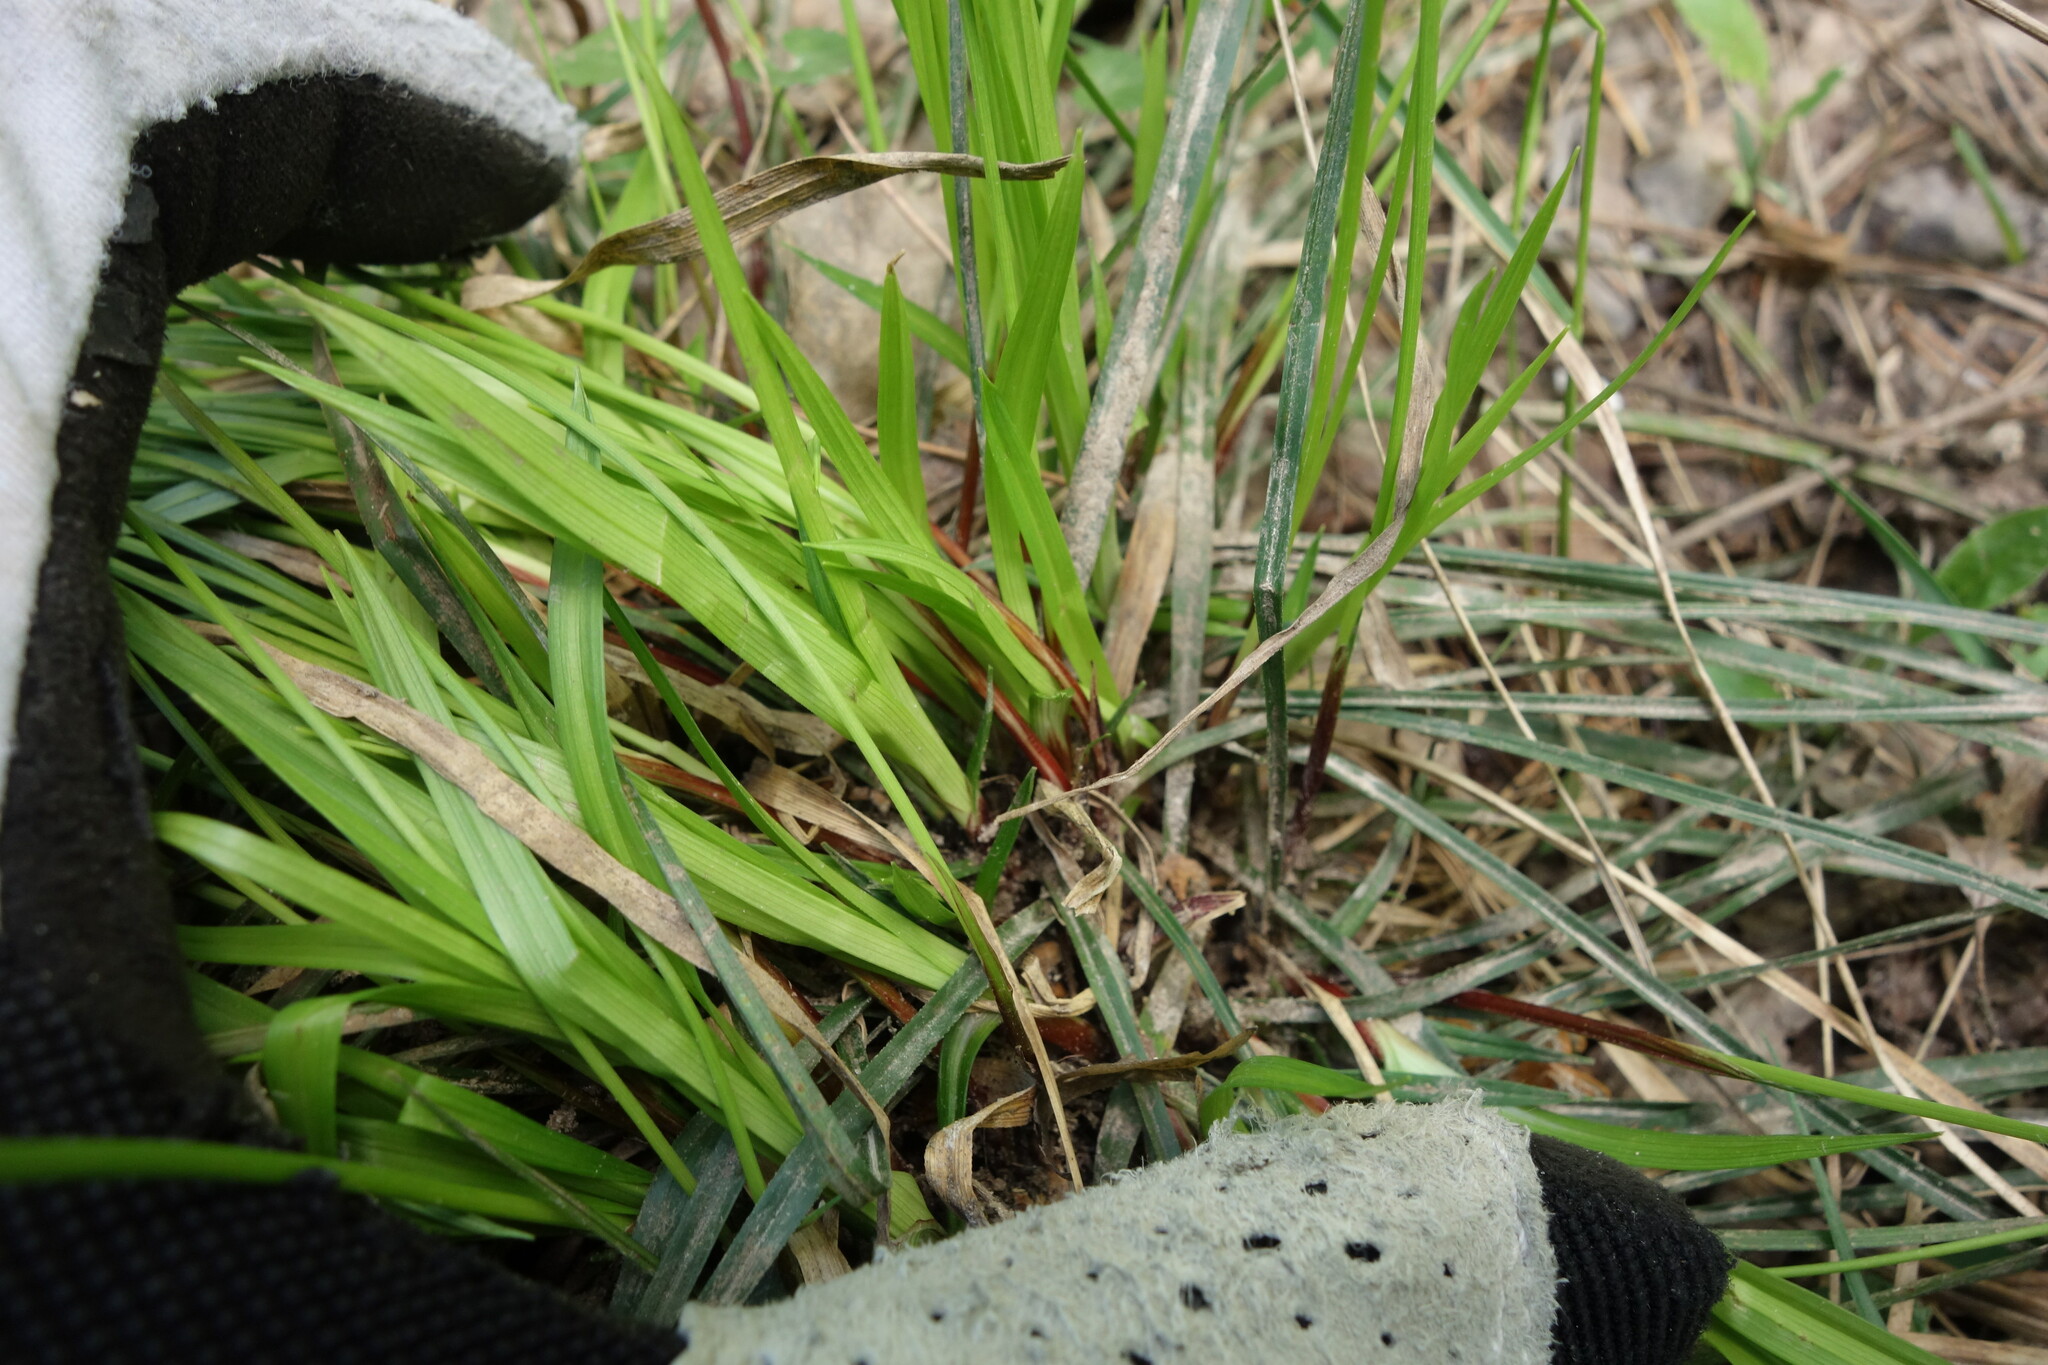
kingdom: Plantae
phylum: Tracheophyta
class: Liliopsida
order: Poales
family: Cyperaceae
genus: Carex
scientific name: Carex digitata
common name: Fingered sedge
